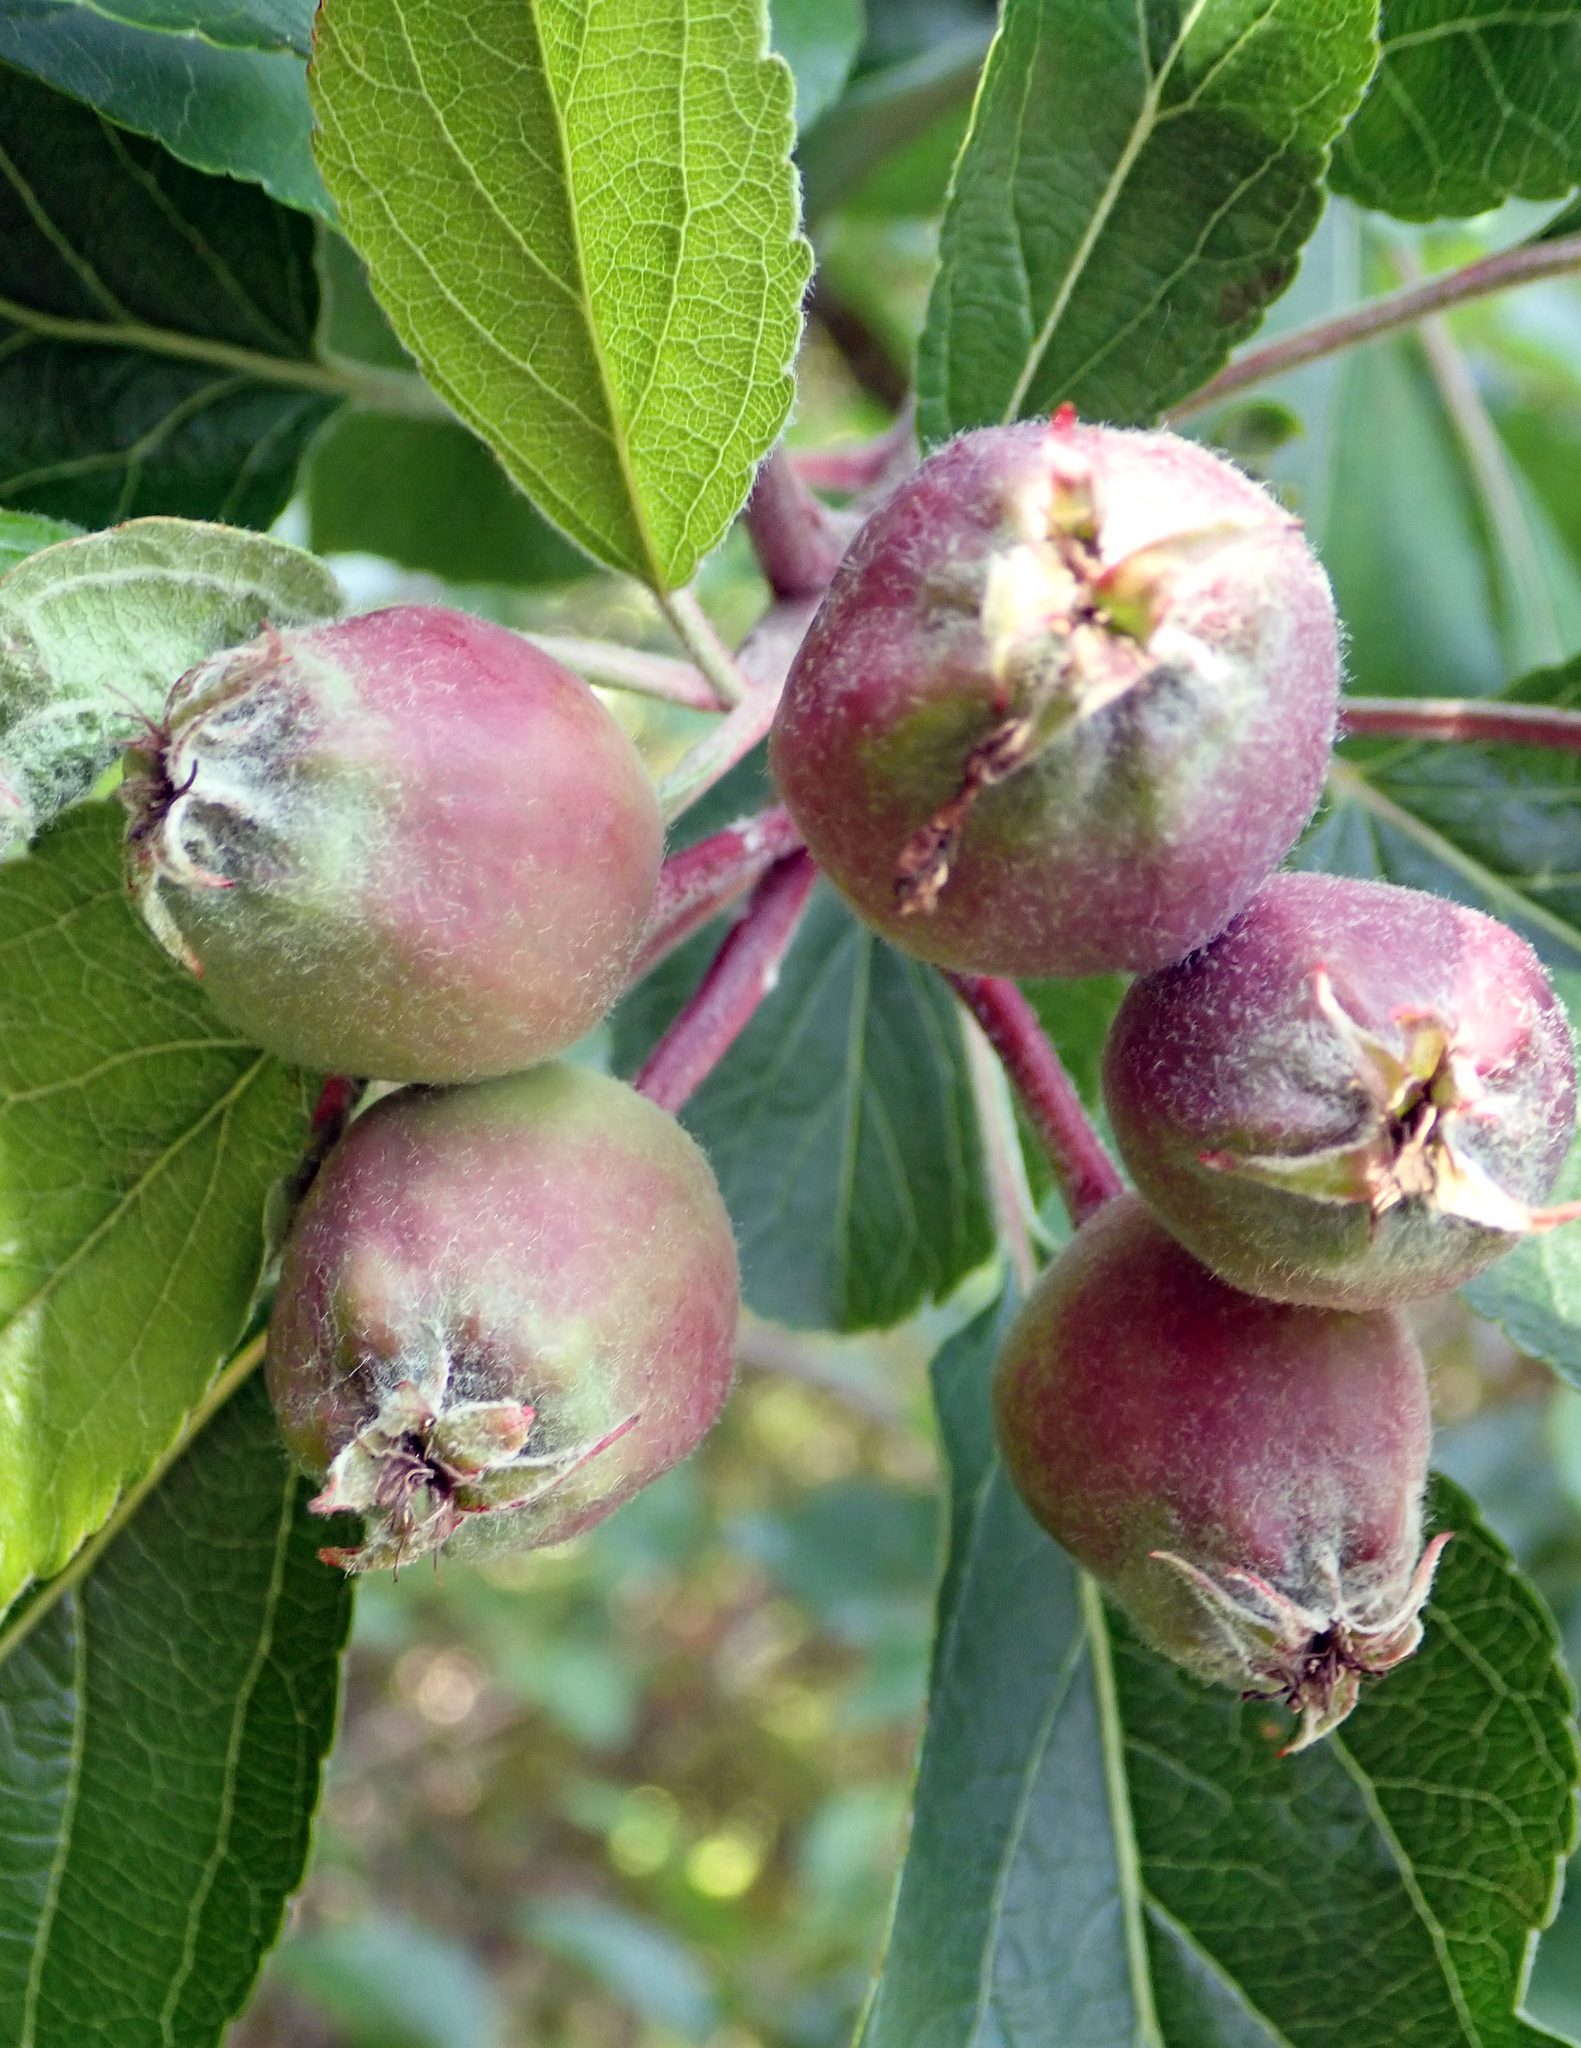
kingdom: Plantae
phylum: Tracheophyta
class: Magnoliopsida
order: Rosales
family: Rosaceae
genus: Malus
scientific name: Malus domestica
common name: Apple
